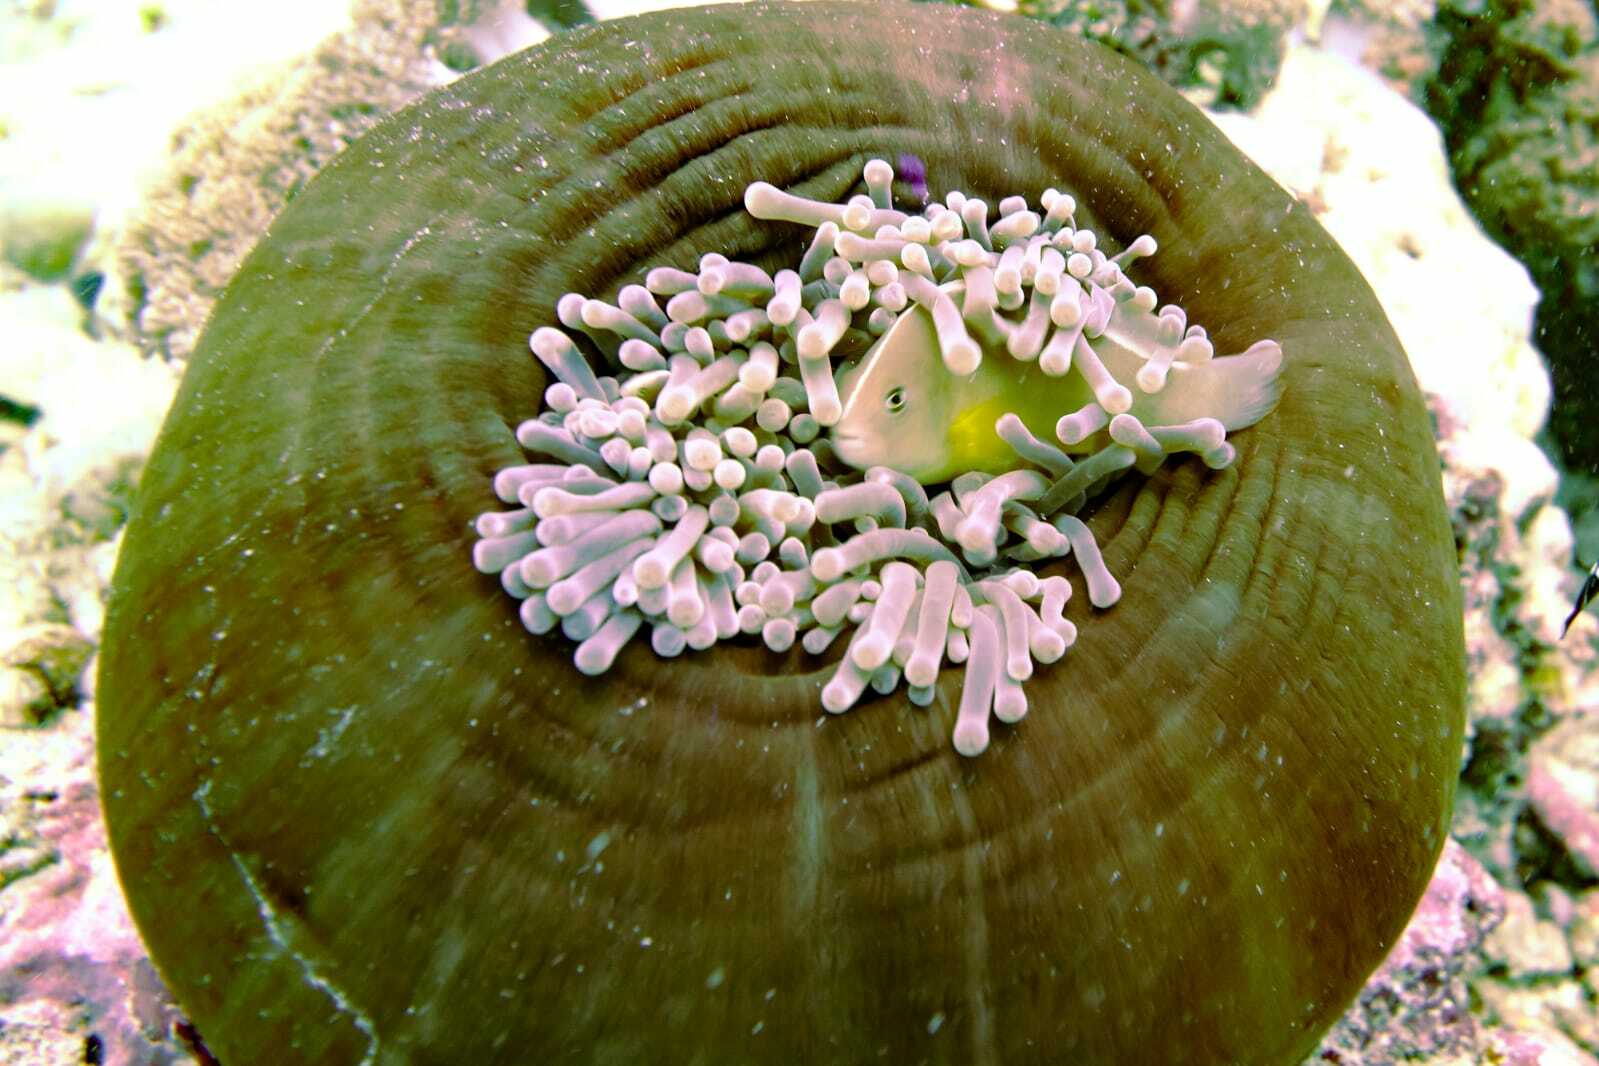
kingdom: Animalia
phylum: Cnidaria
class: Anthozoa
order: Actiniaria
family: Stichodactylidae
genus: Radianthus
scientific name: Radianthus magnifica
